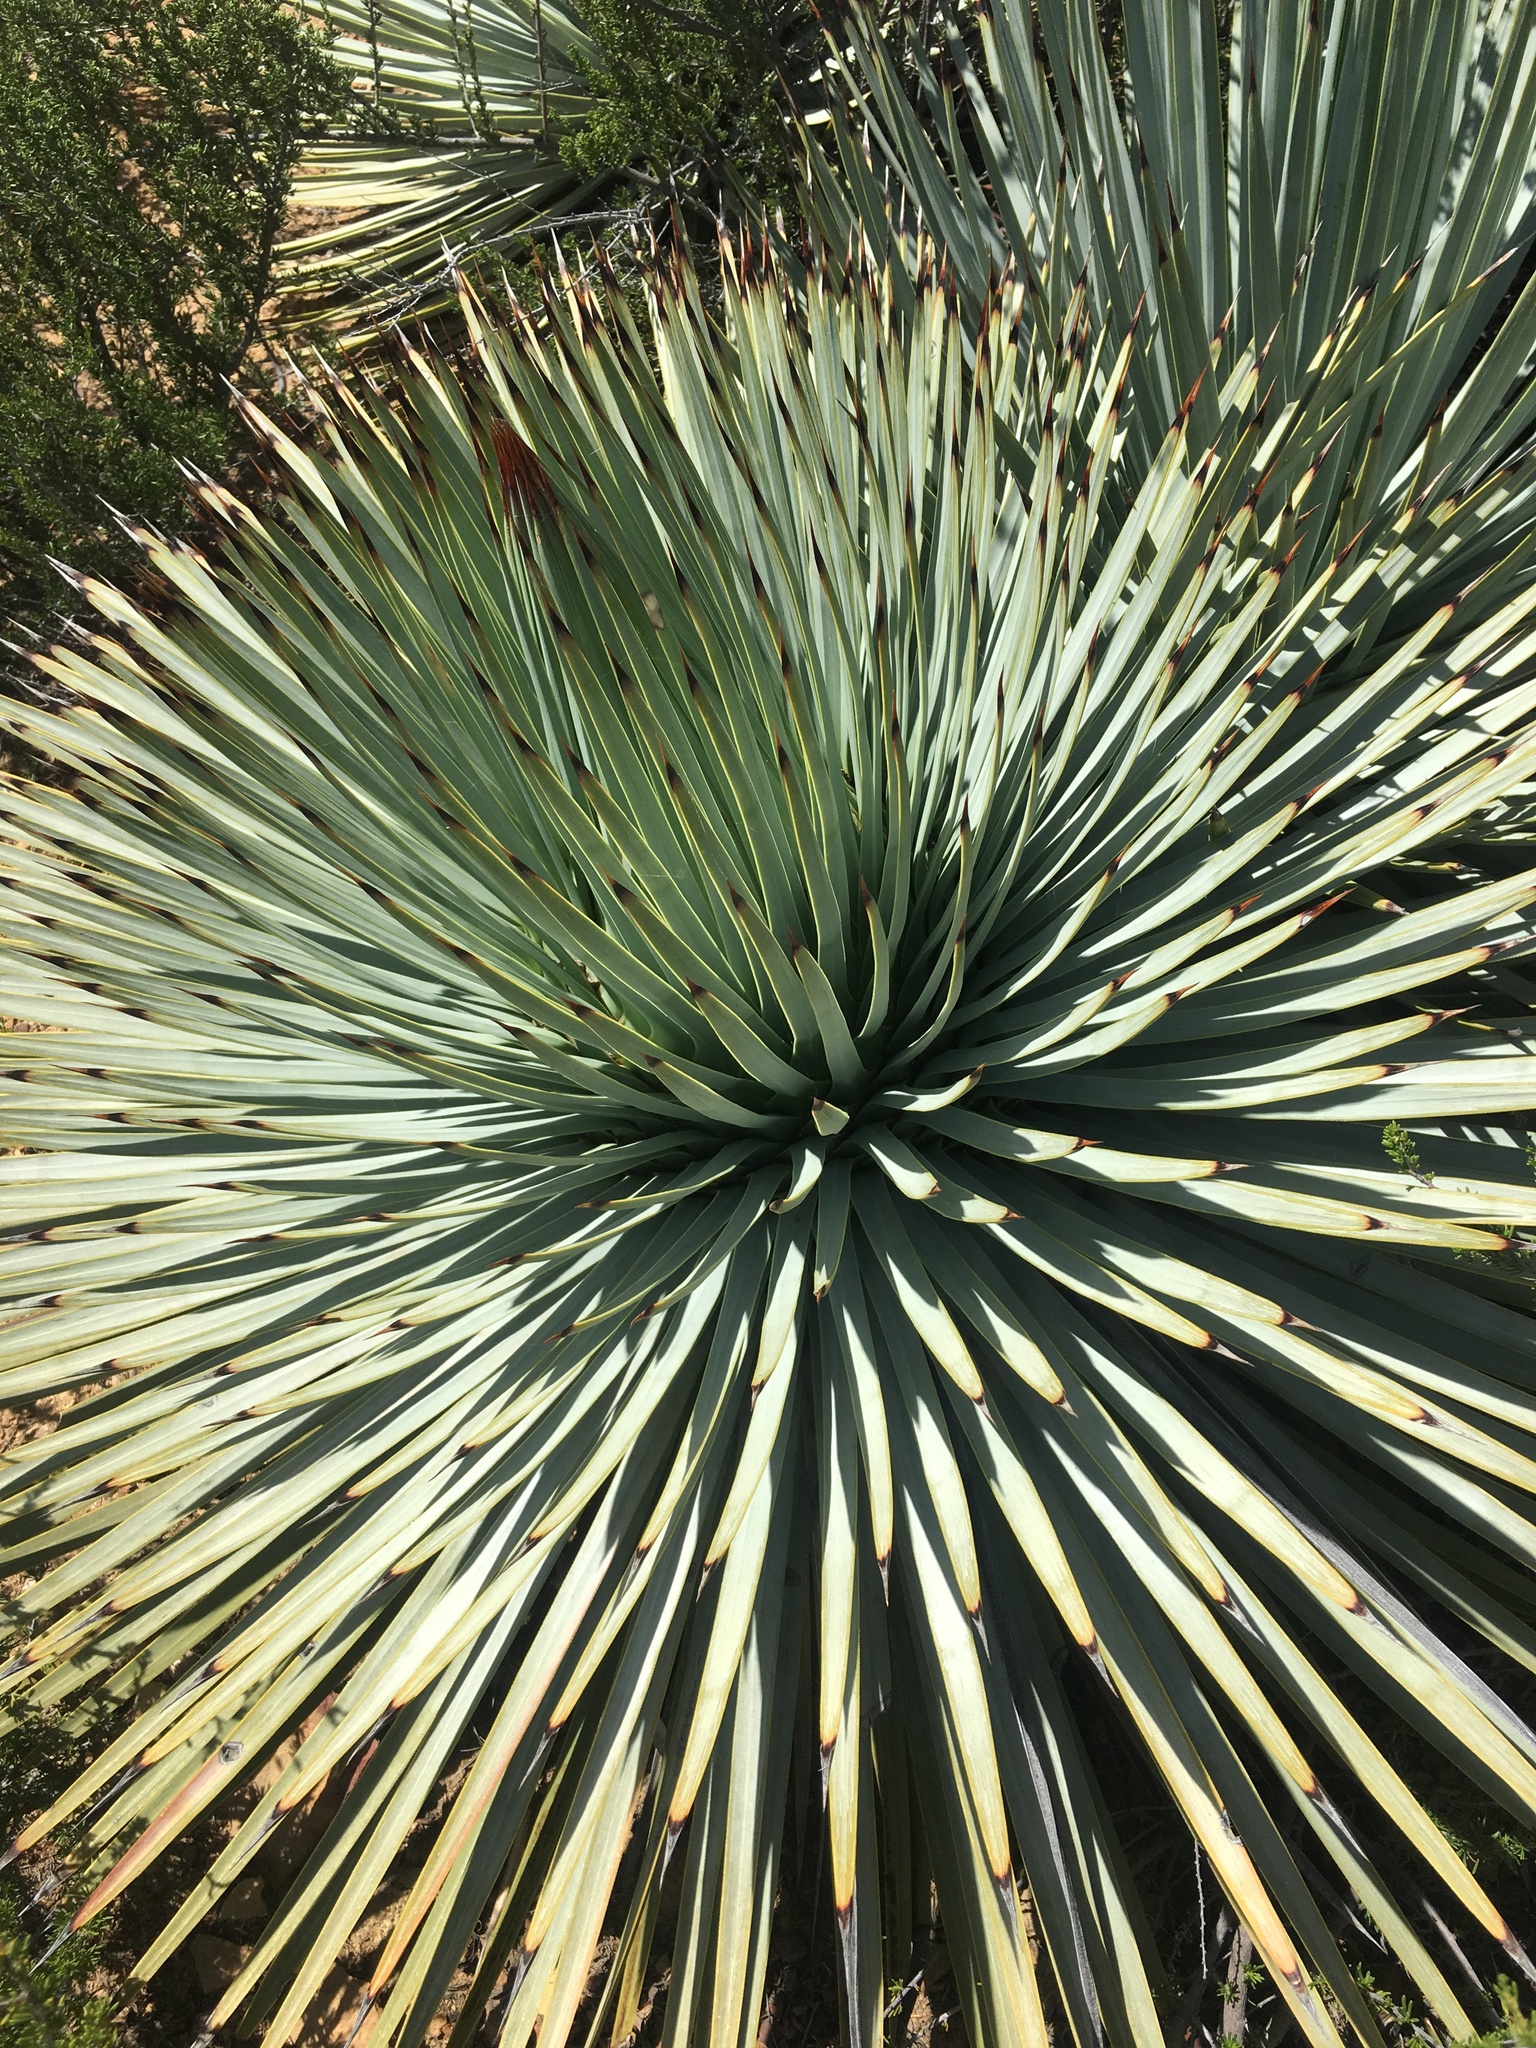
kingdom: Plantae
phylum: Tracheophyta
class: Liliopsida
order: Asparagales
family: Asparagaceae
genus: Hesperoyucca
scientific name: Hesperoyucca whipplei
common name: Our lord's-candle
